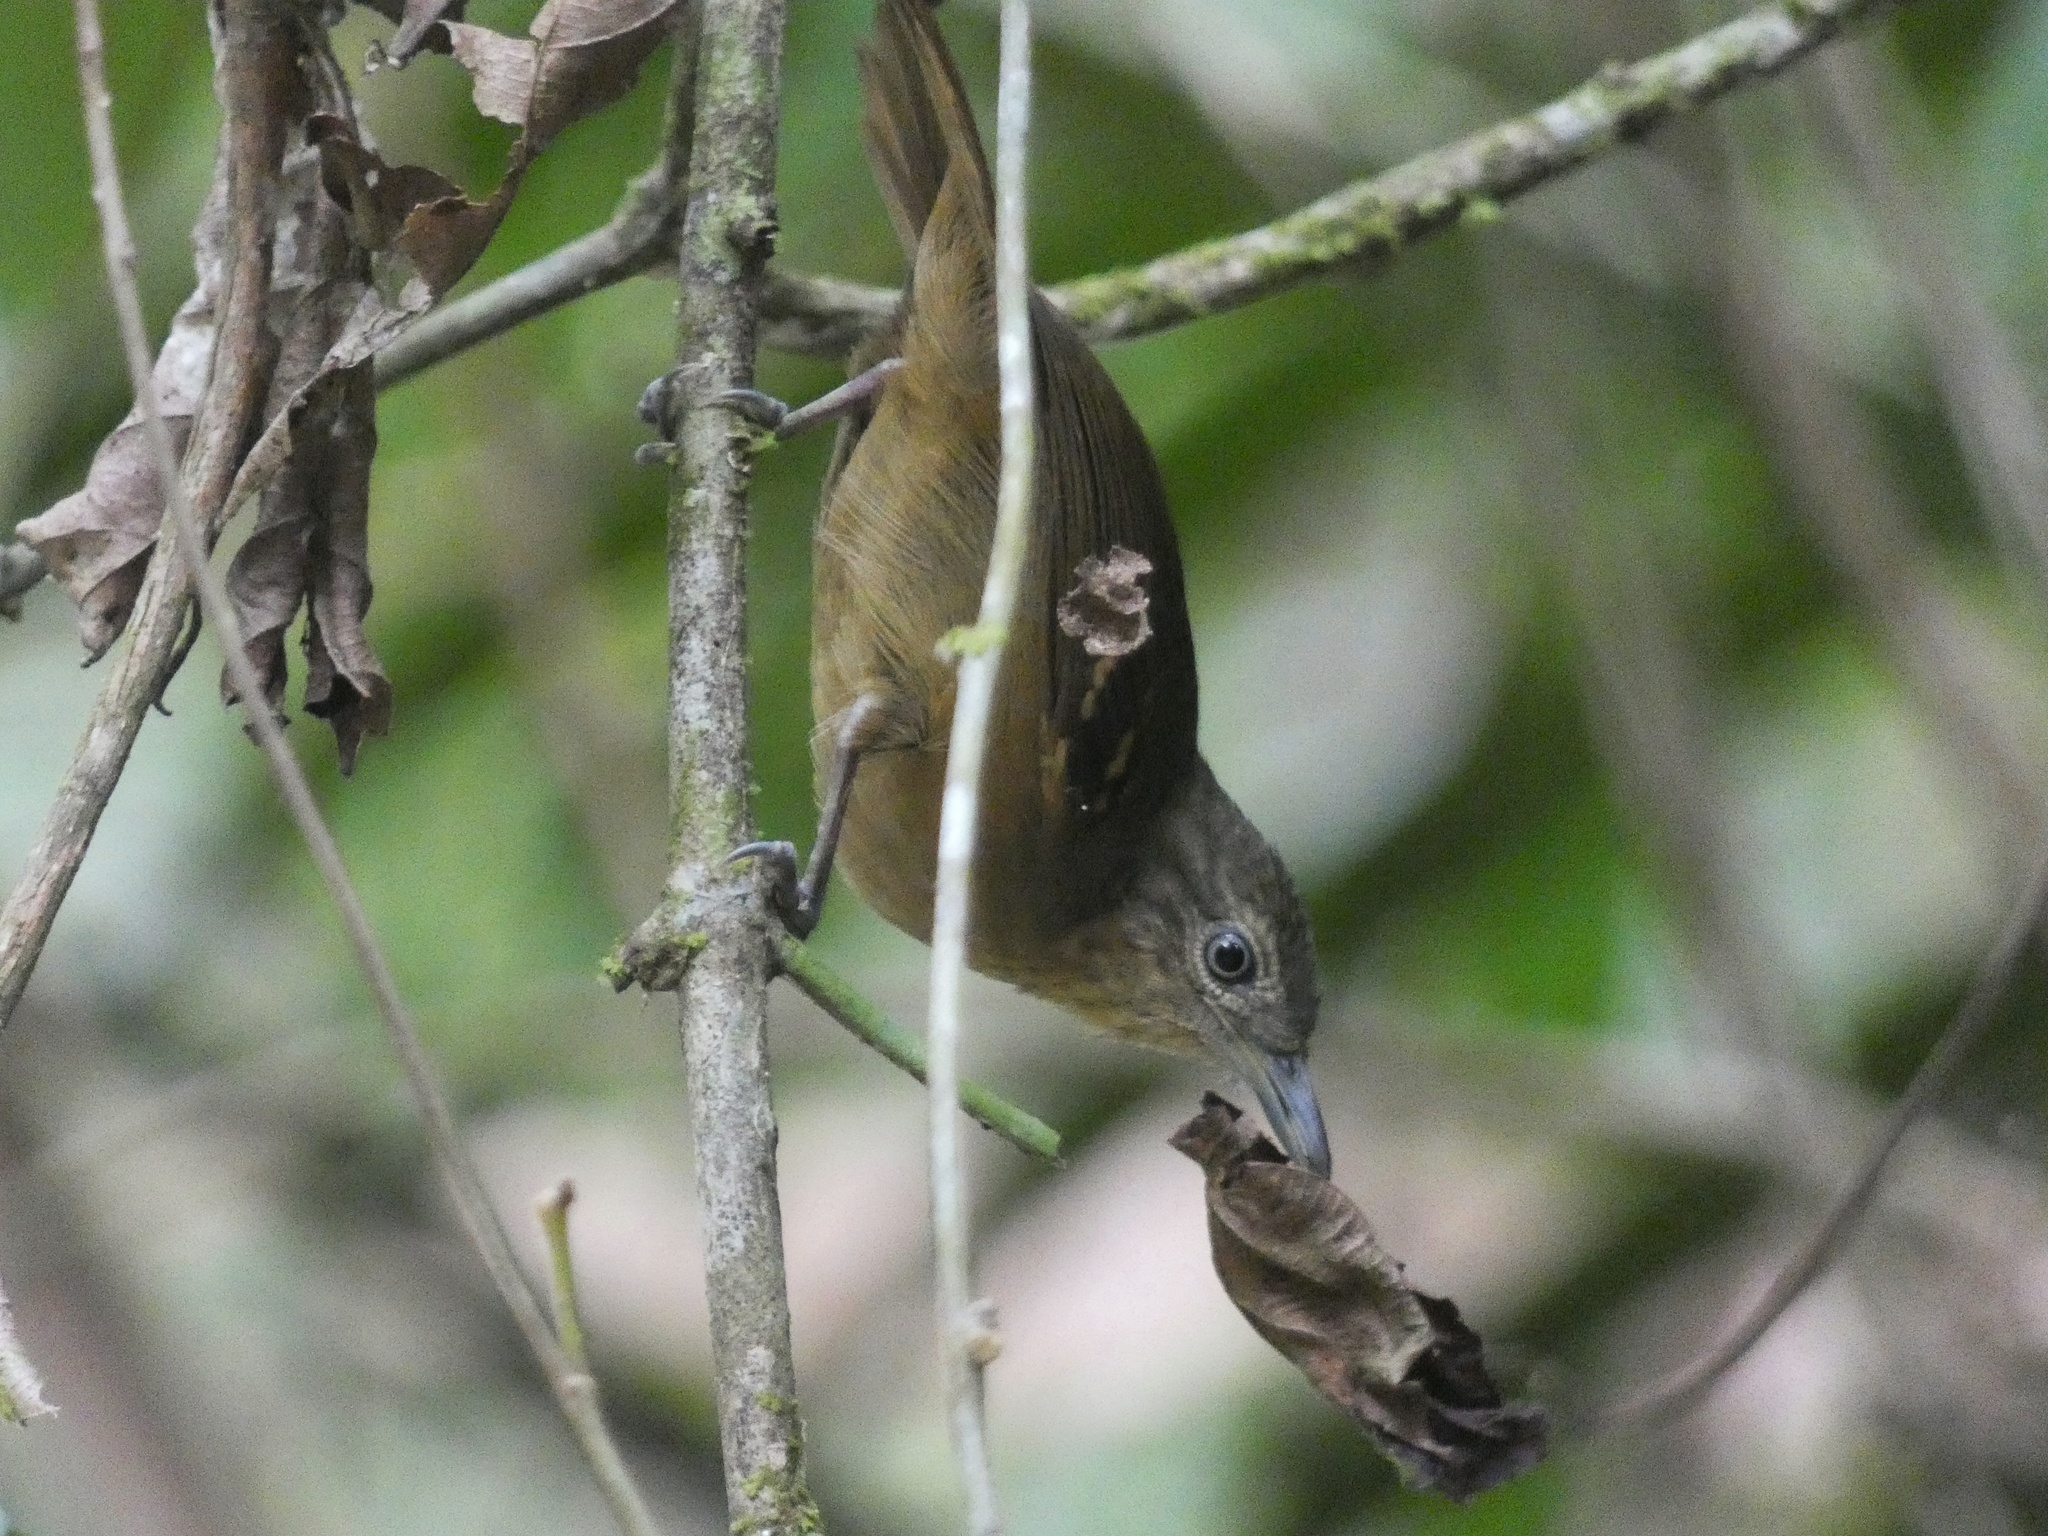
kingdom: Animalia
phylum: Chordata
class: Aves
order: Passeriformes
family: Thamnophilidae
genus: Epinecrophylla
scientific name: Epinecrophylla fulviventris
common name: Checker-throated antwren
